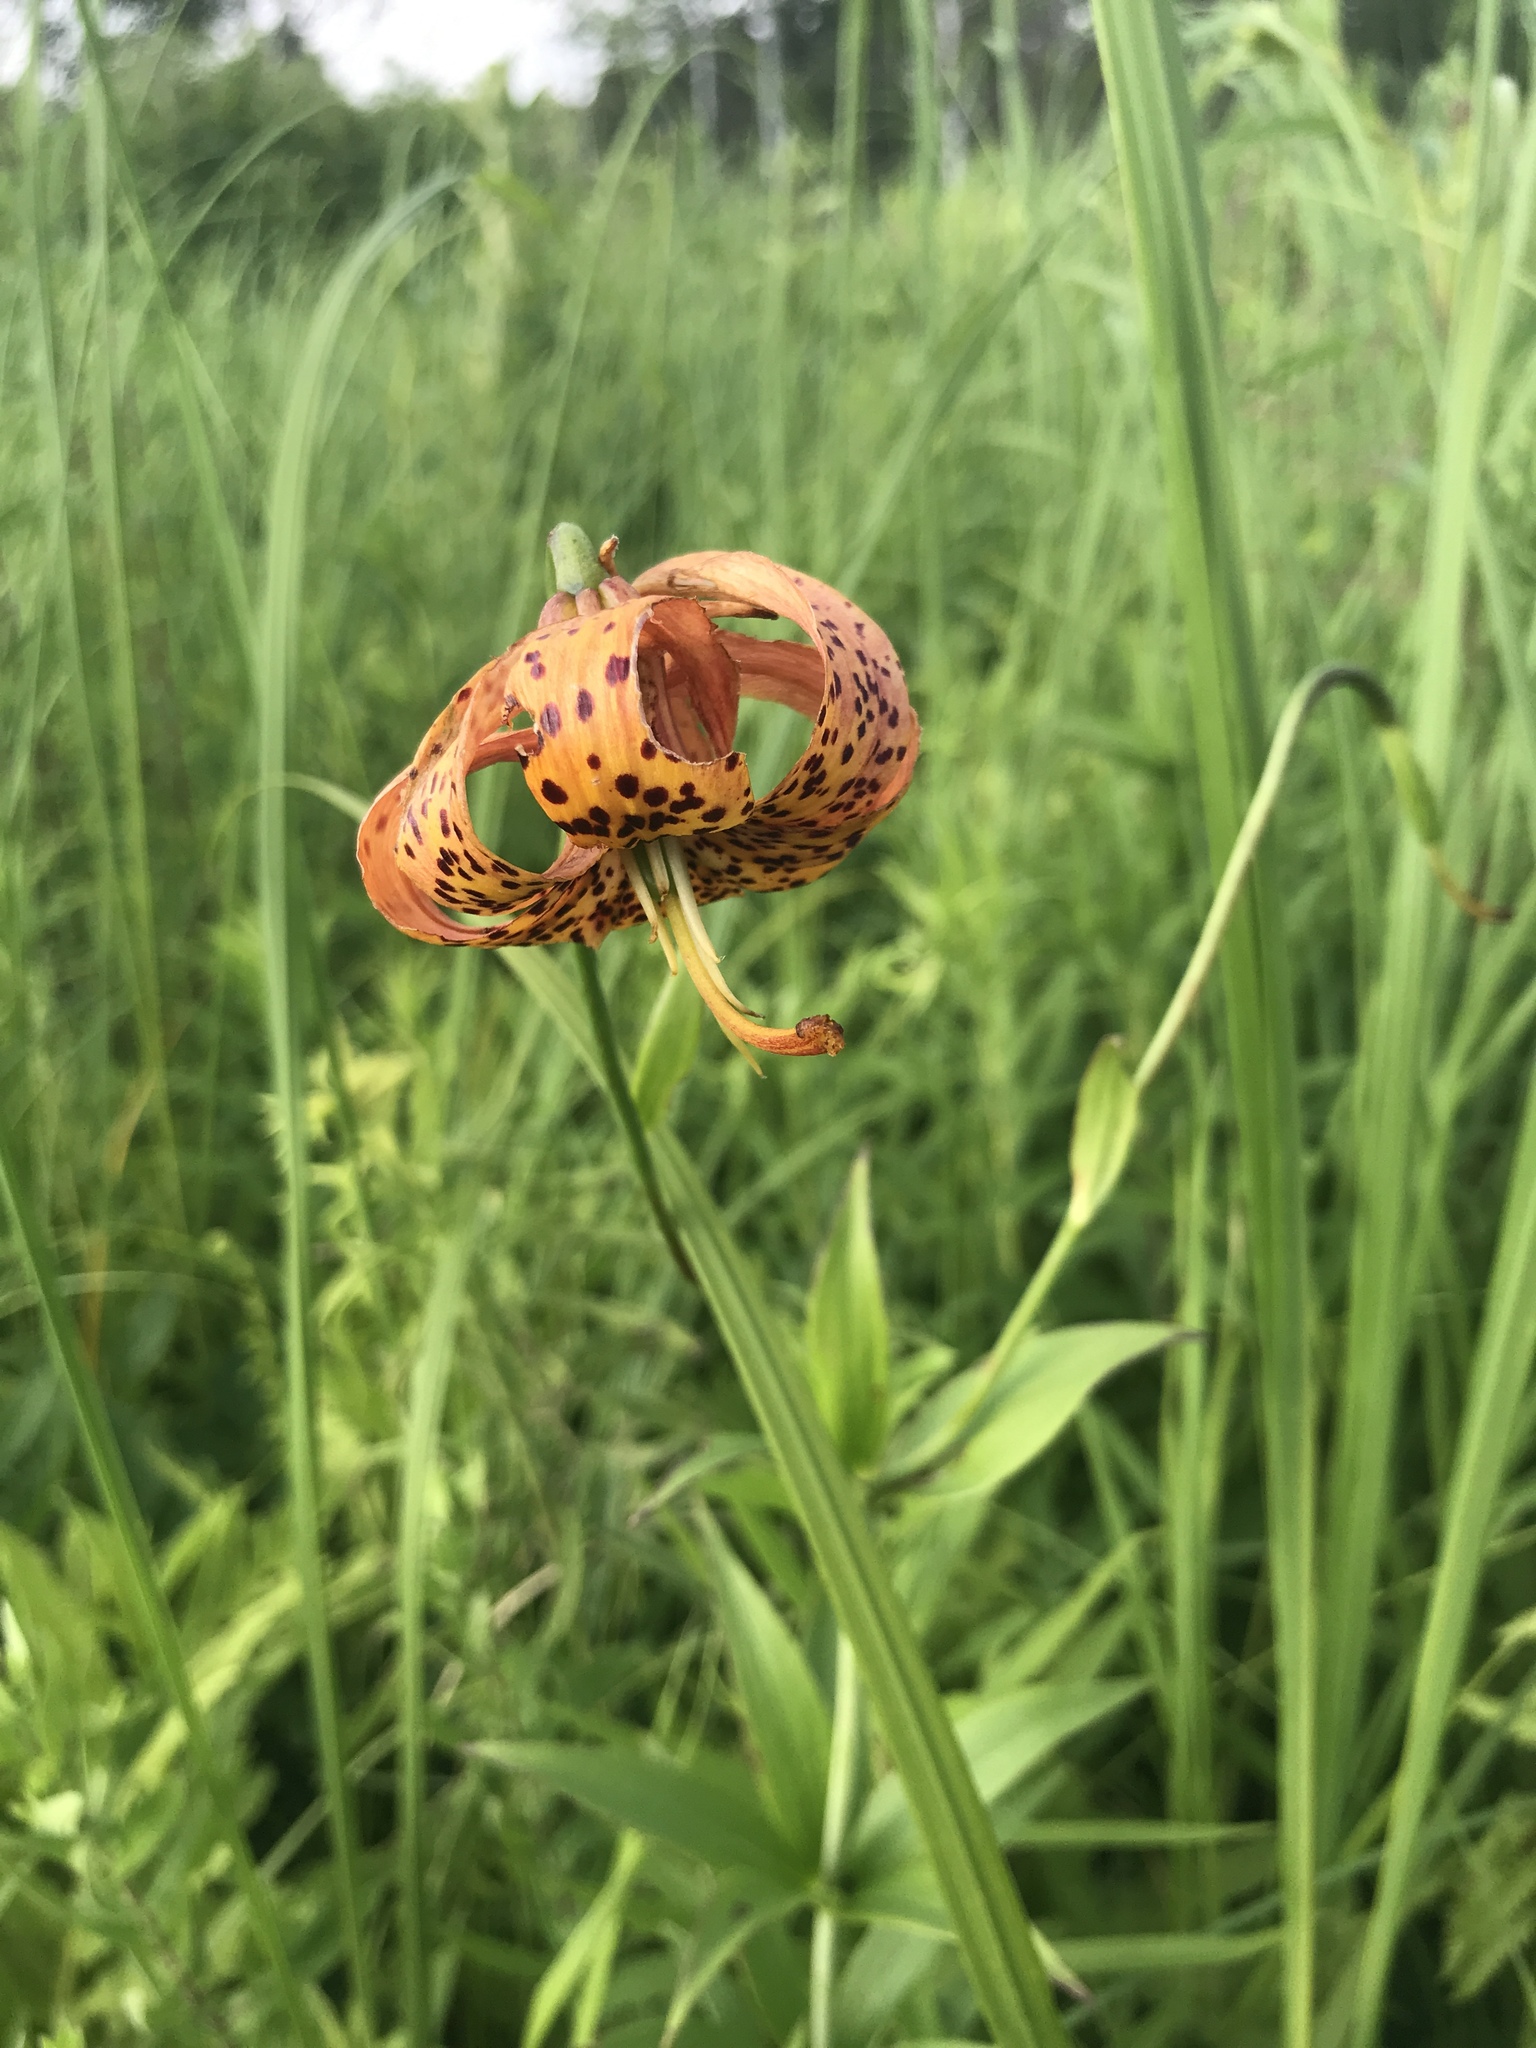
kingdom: Plantae
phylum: Tracheophyta
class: Liliopsida
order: Liliales
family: Liliaceae
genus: Lilium
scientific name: Lilium michiganense
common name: Michigan lily
